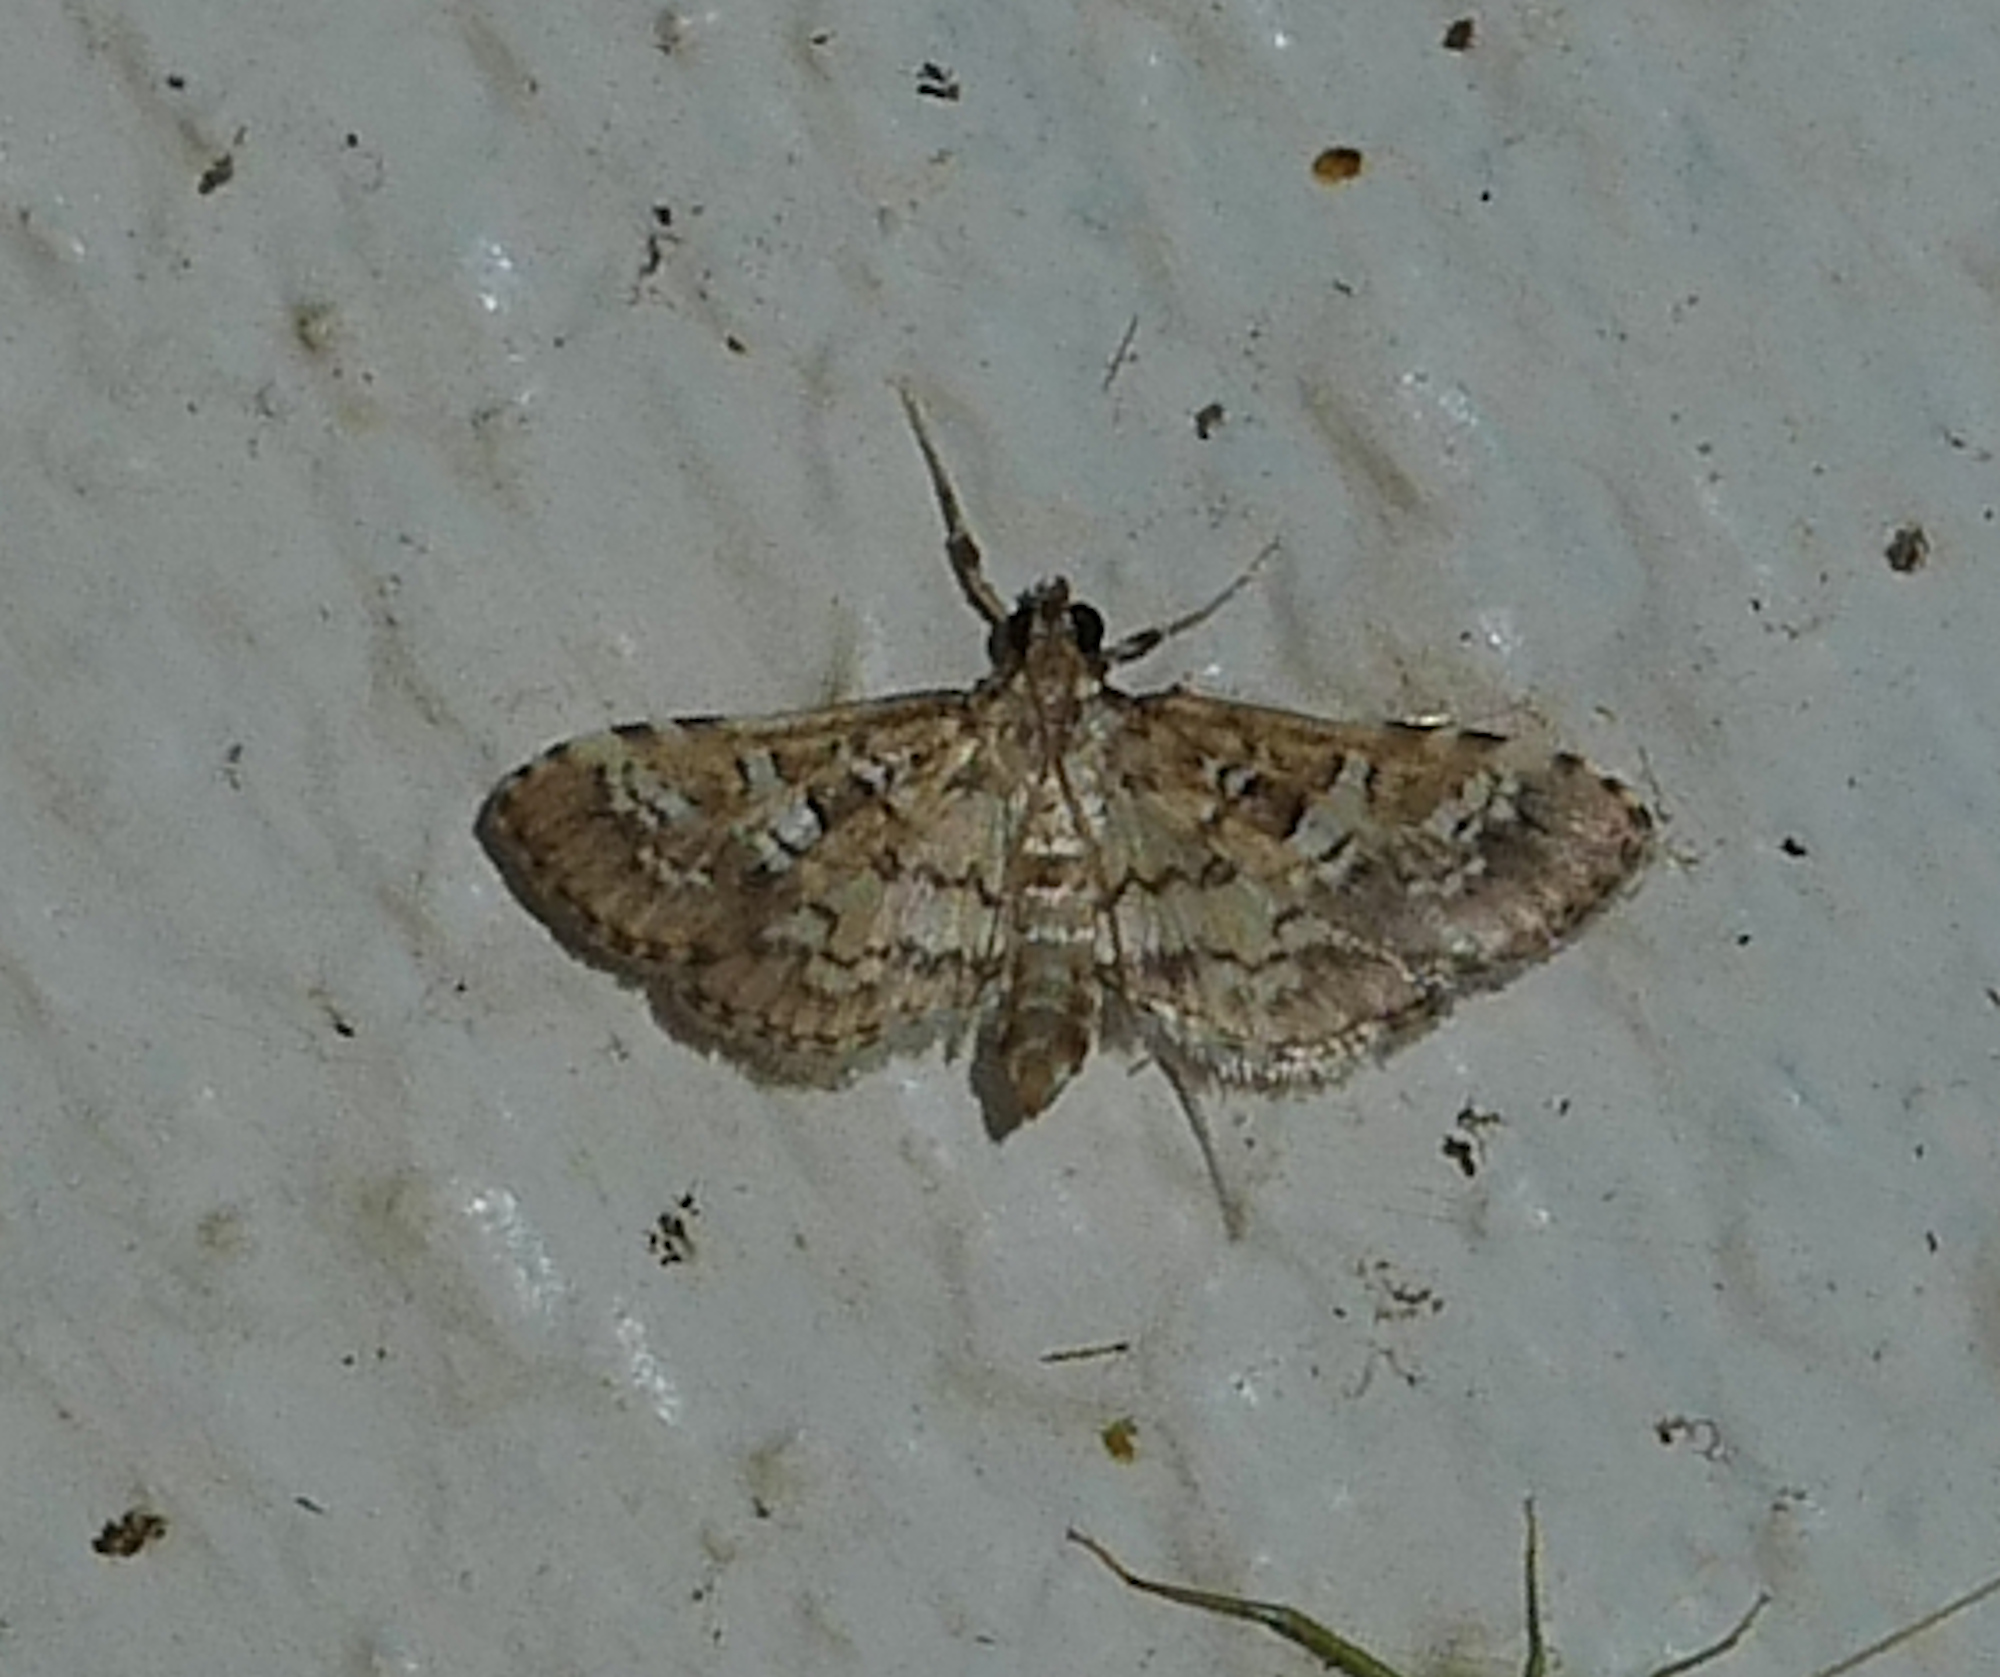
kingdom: Animalia
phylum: Arthropoda
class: Insecta
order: Lepidoptera
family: Crambidae
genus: Samea
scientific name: Samea multiplicalis
